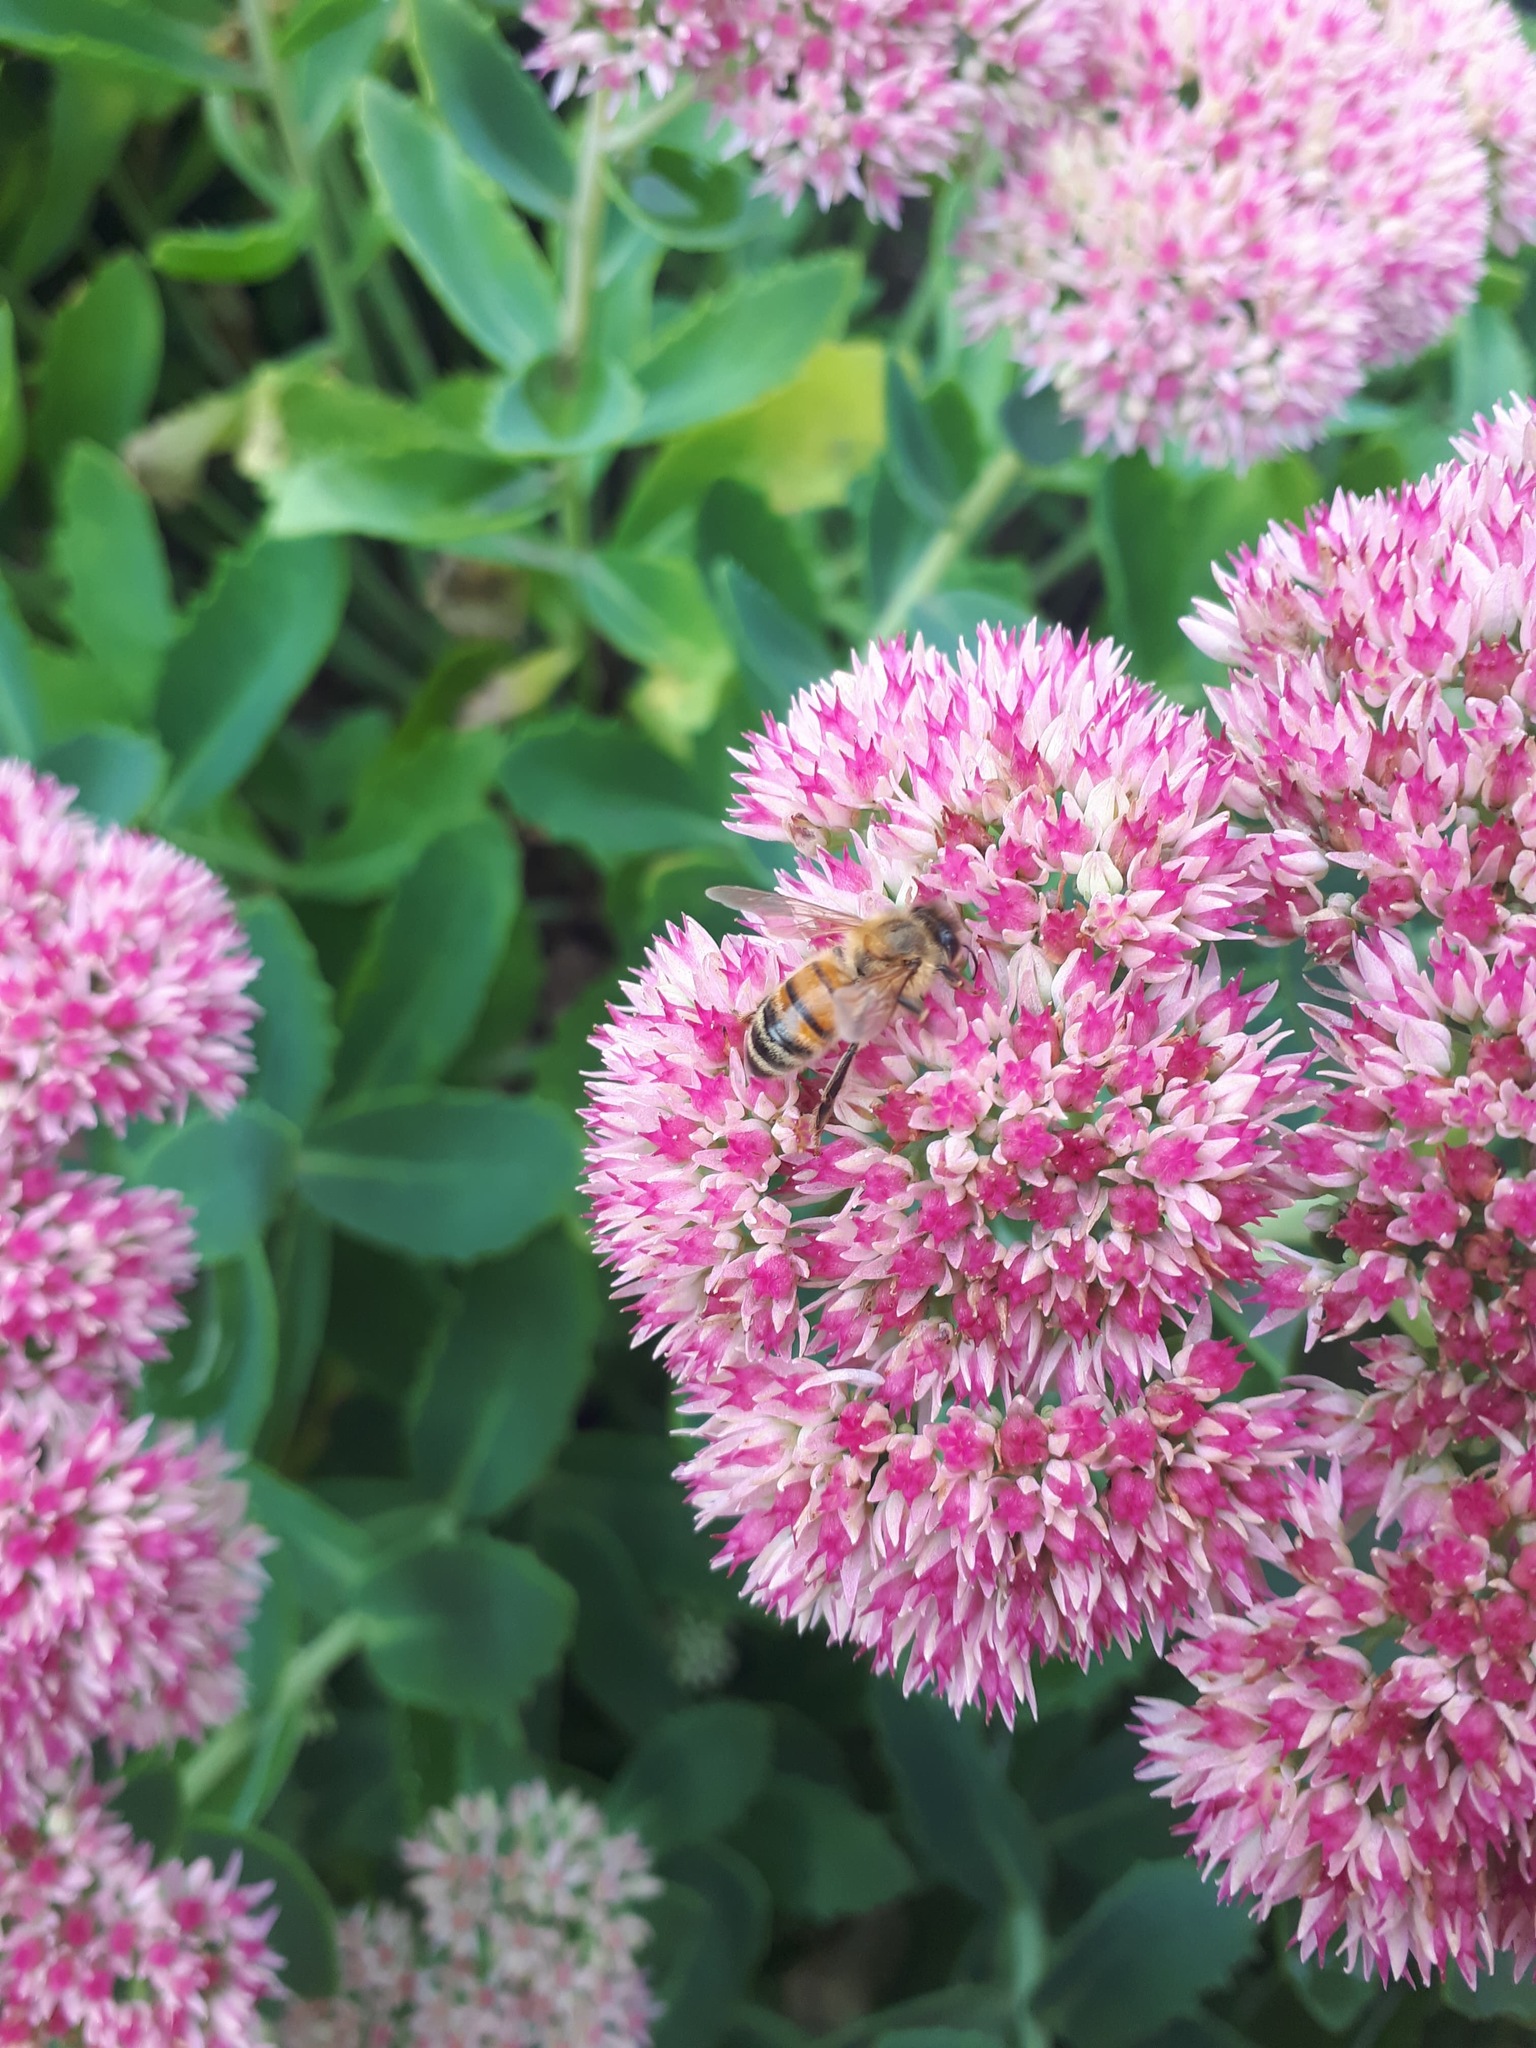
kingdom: Animalia
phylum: Arthropoda
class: Insecta
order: Hymenoptera
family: Apidae
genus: Apis
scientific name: Apis mellifera
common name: Honey bee
